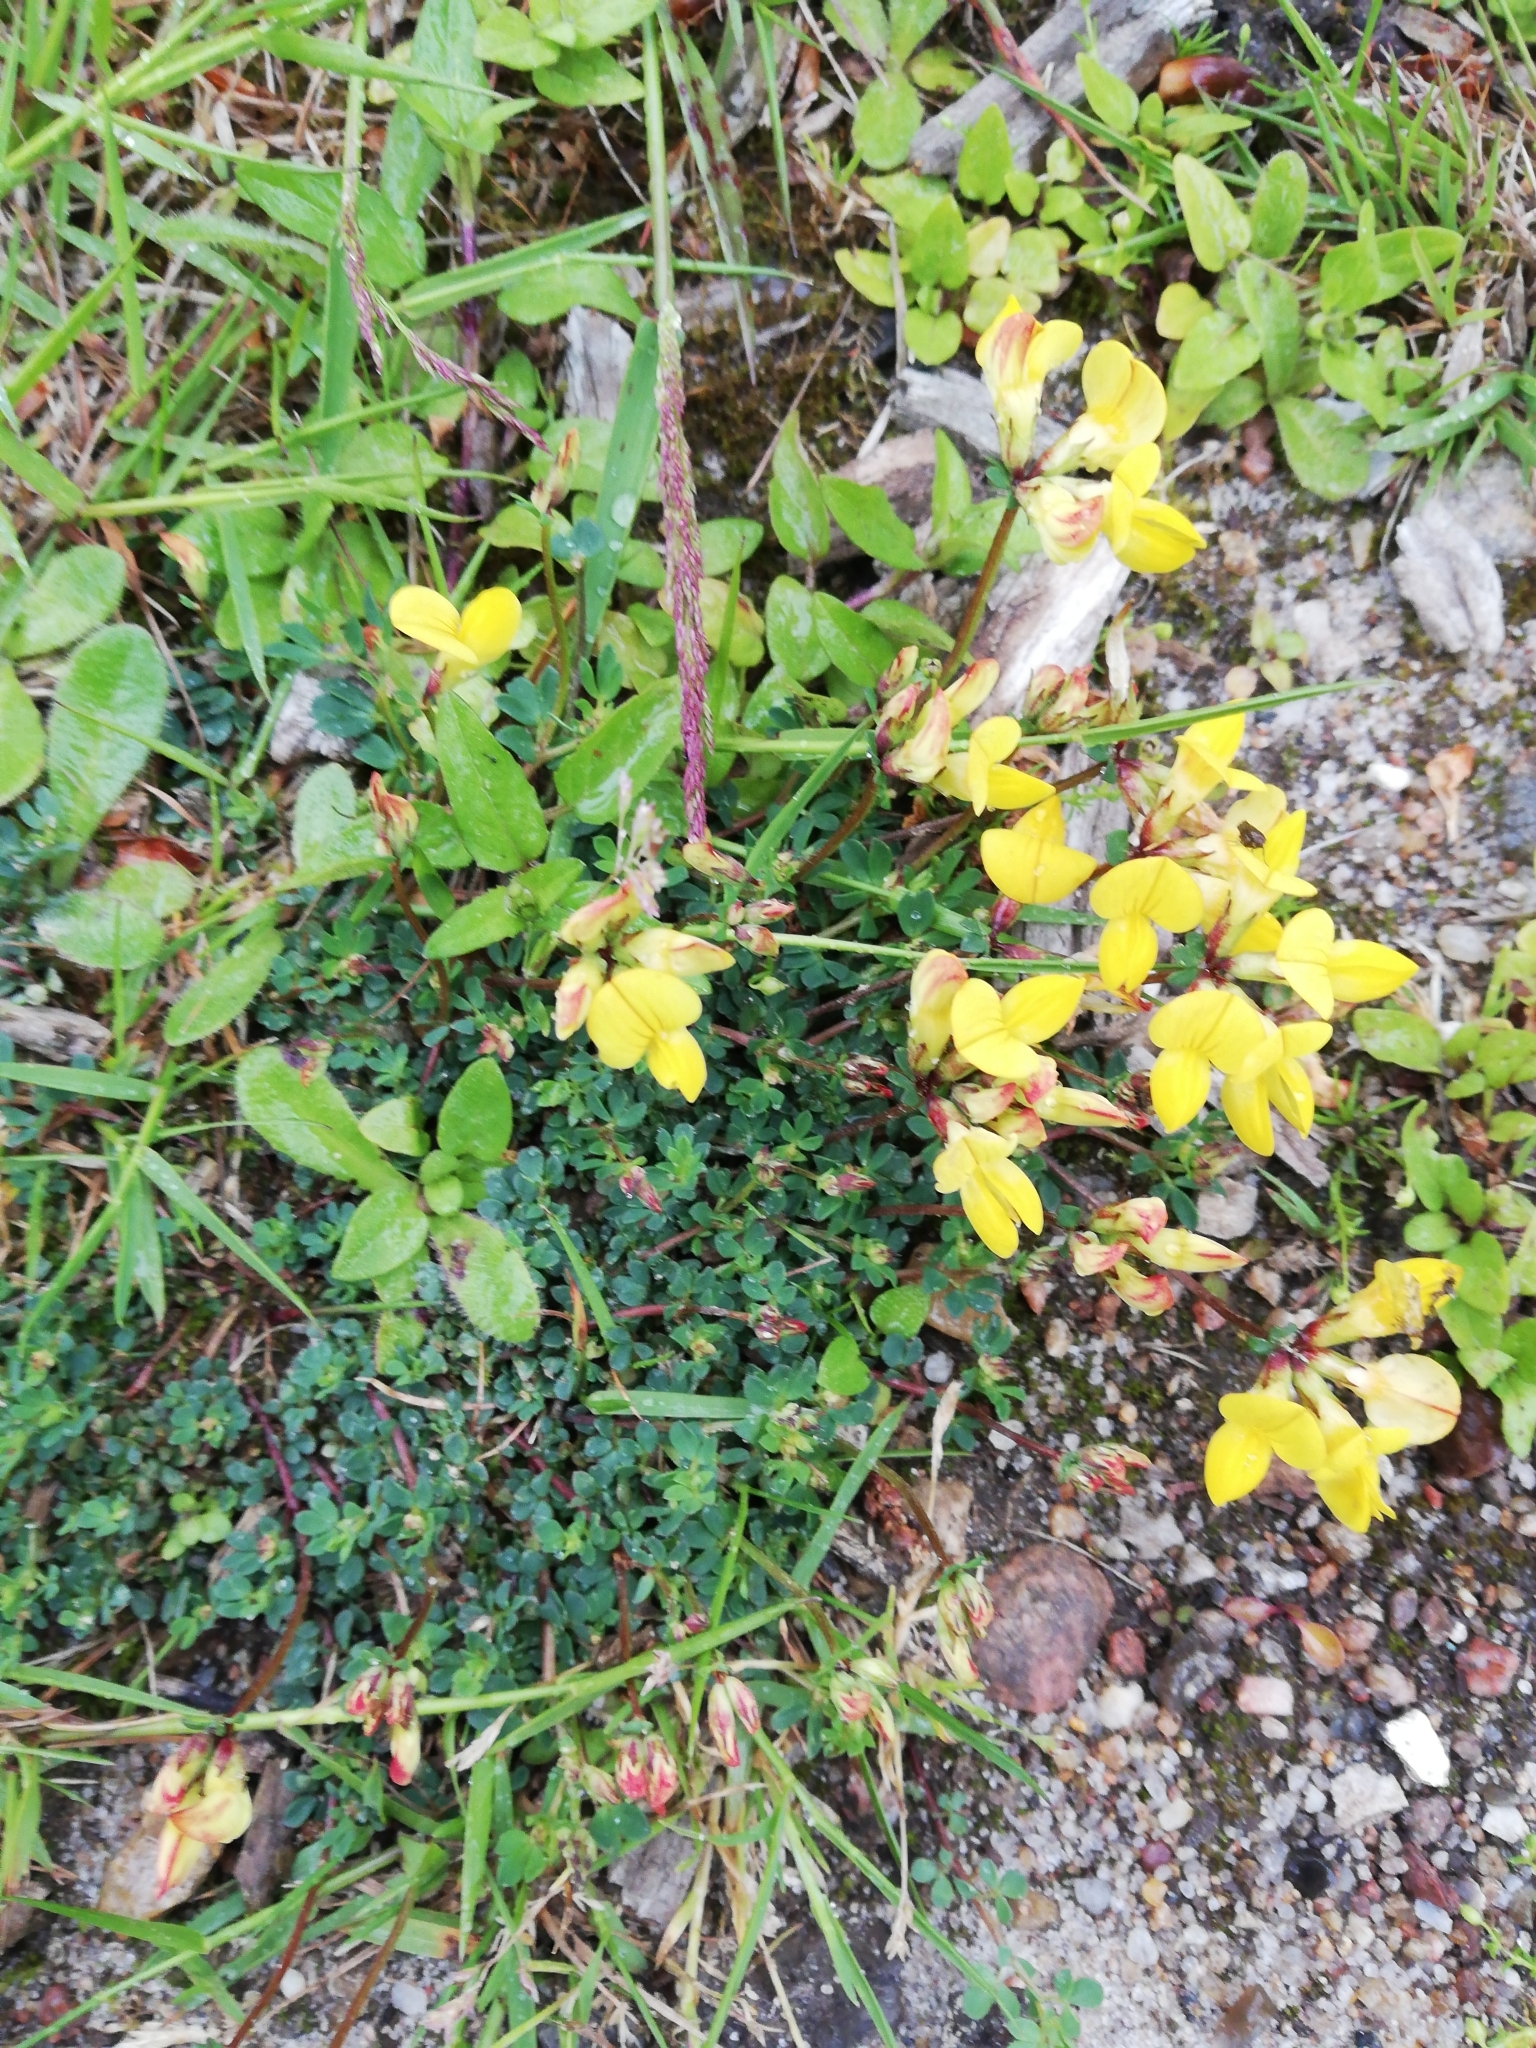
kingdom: Plantae
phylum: Tracheophyta
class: Magnoliopsida
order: Fabales
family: Fabaceae
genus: Lotus
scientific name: Lotus corniculatus
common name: Common bird's-foot-trefoil
